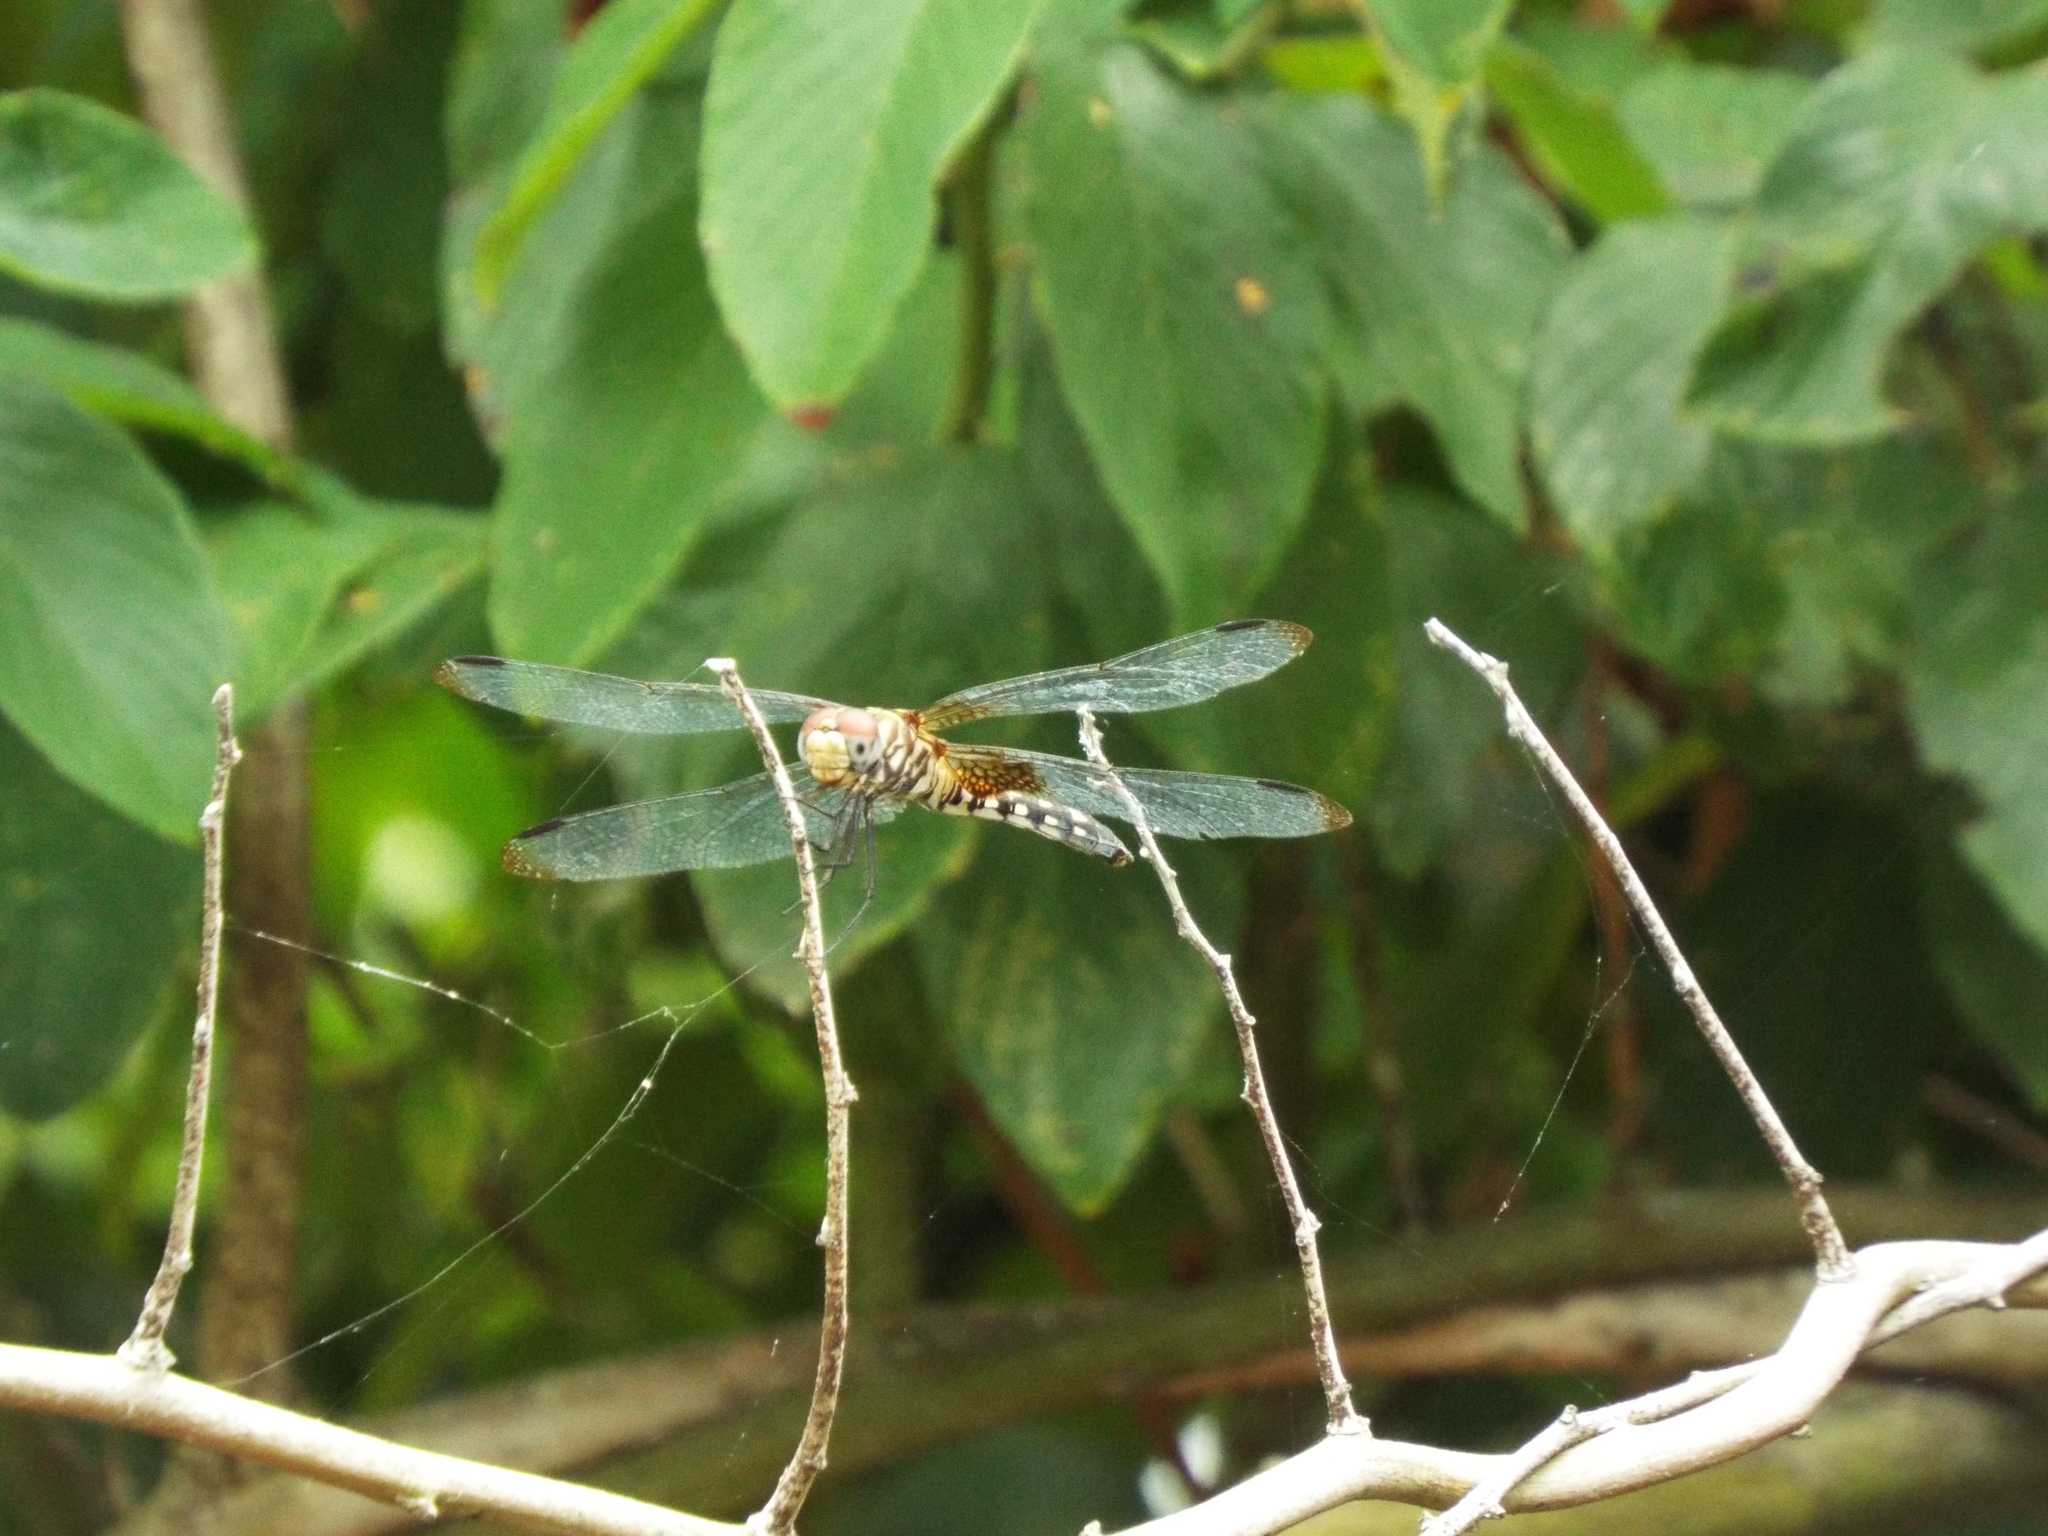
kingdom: Animalia
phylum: Arthropoda
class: Insecta
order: Odonata
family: Libellulidae
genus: Dythemis
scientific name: Dythemis fugax
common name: Checkered setwing
